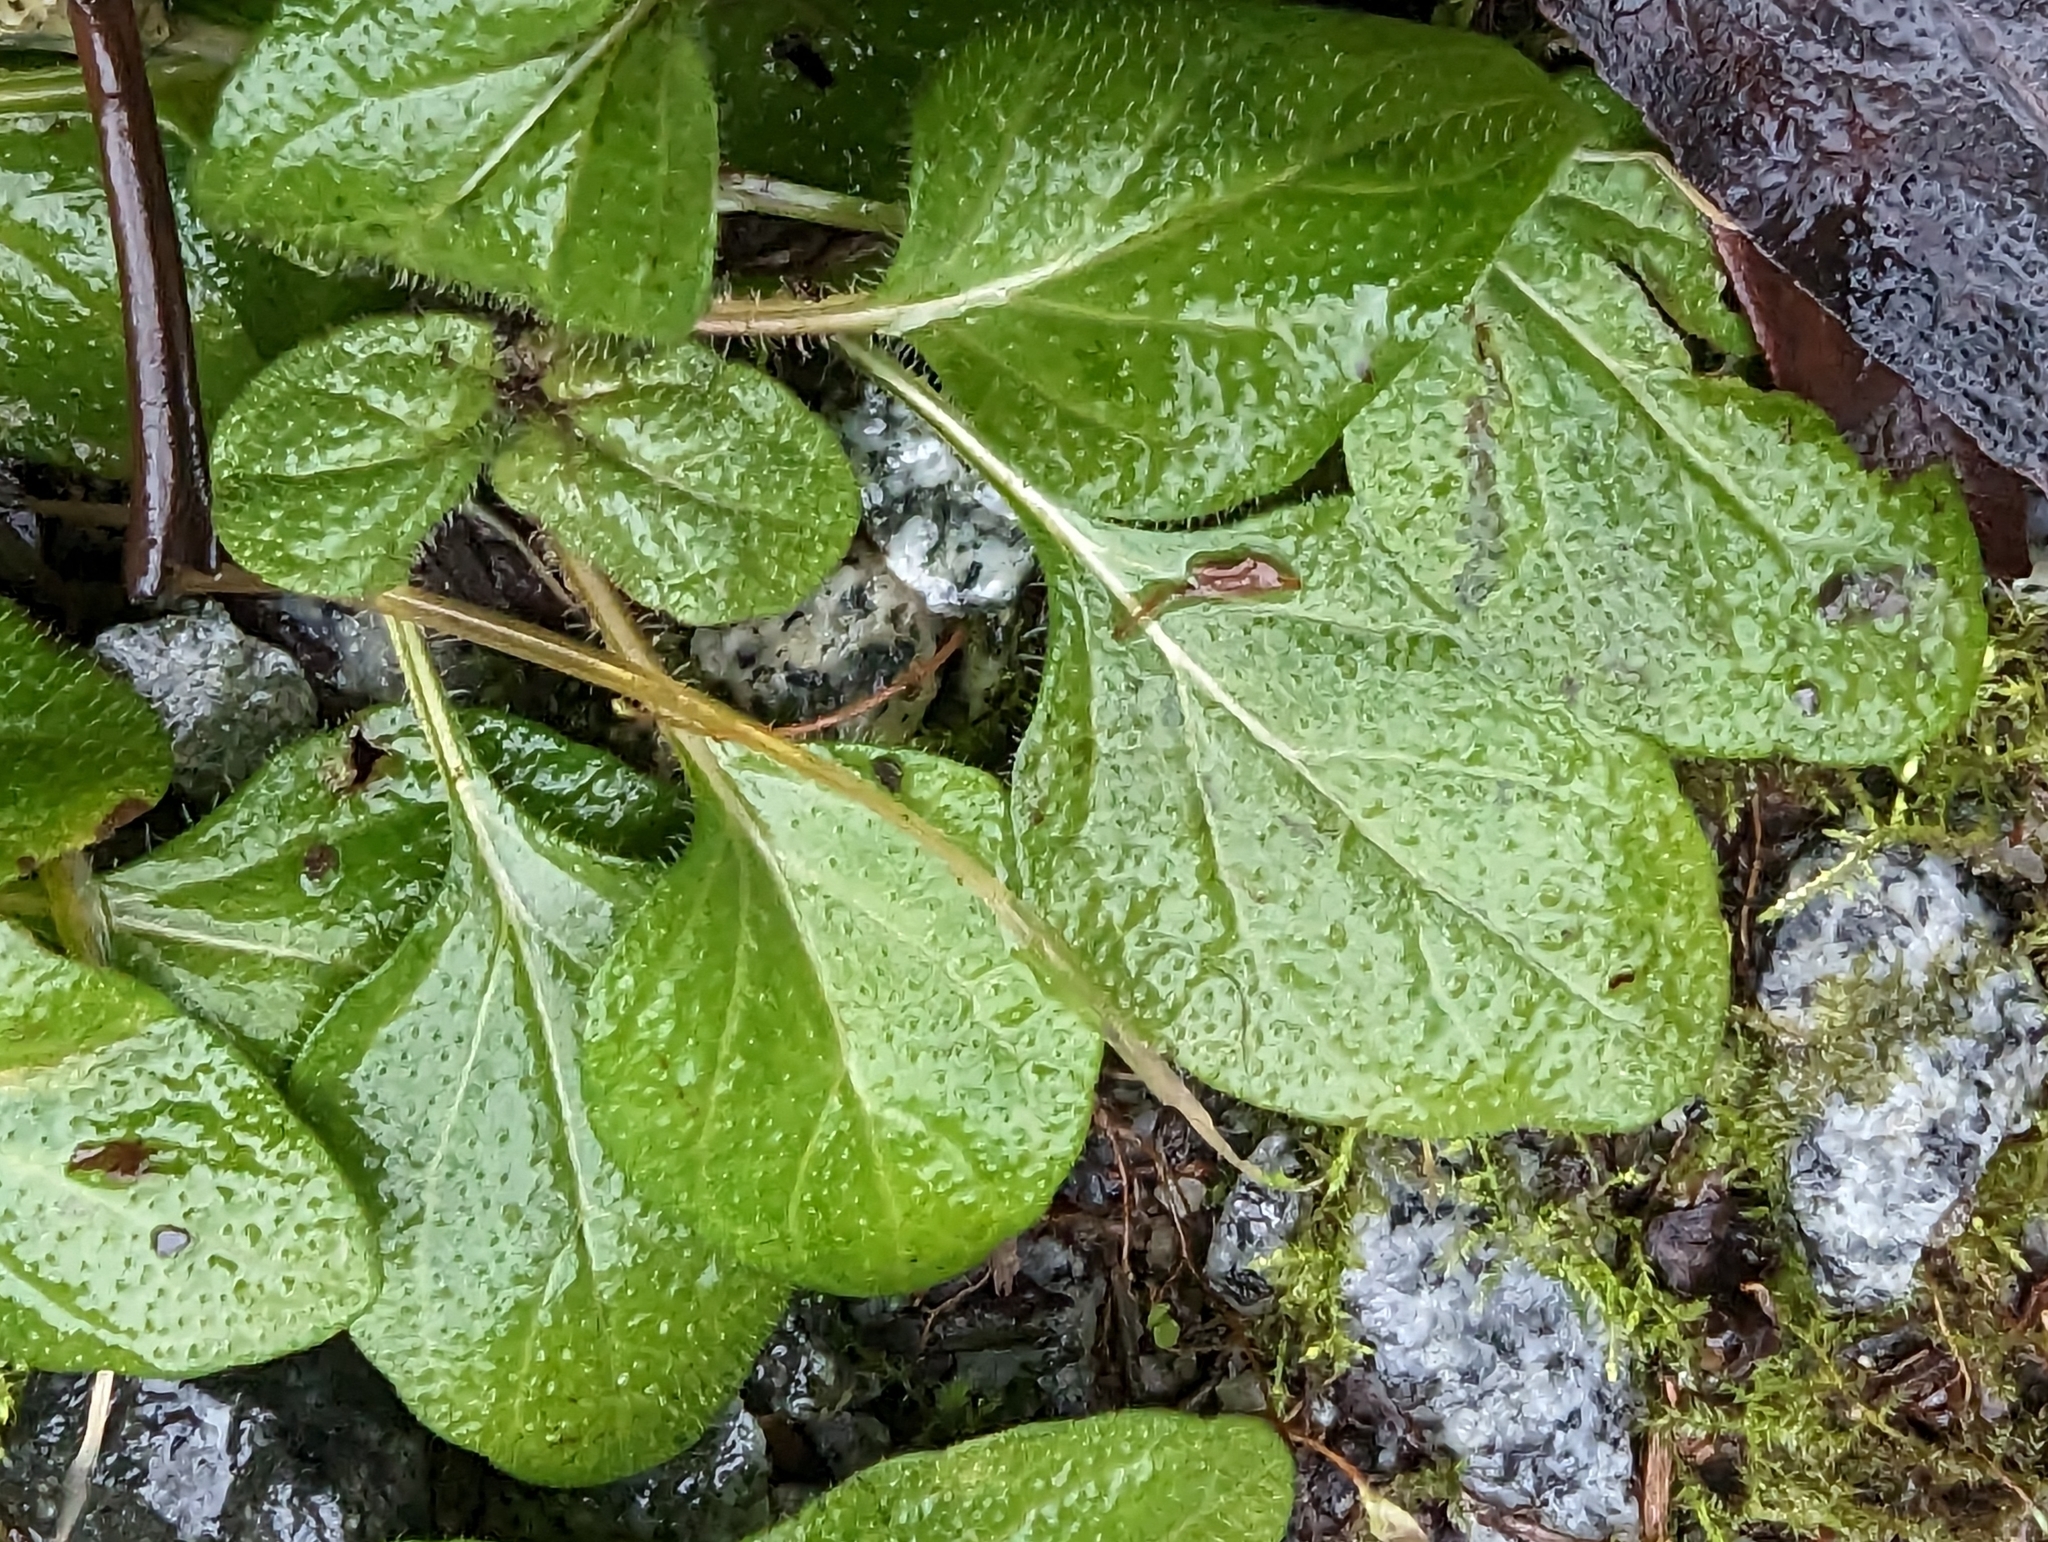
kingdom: Plantae
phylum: Tracheophyta
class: Magnoliopsida
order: Lamiales
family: Lamiaceae
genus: Prunella
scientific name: Prunella vulgaris
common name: Heal-all
